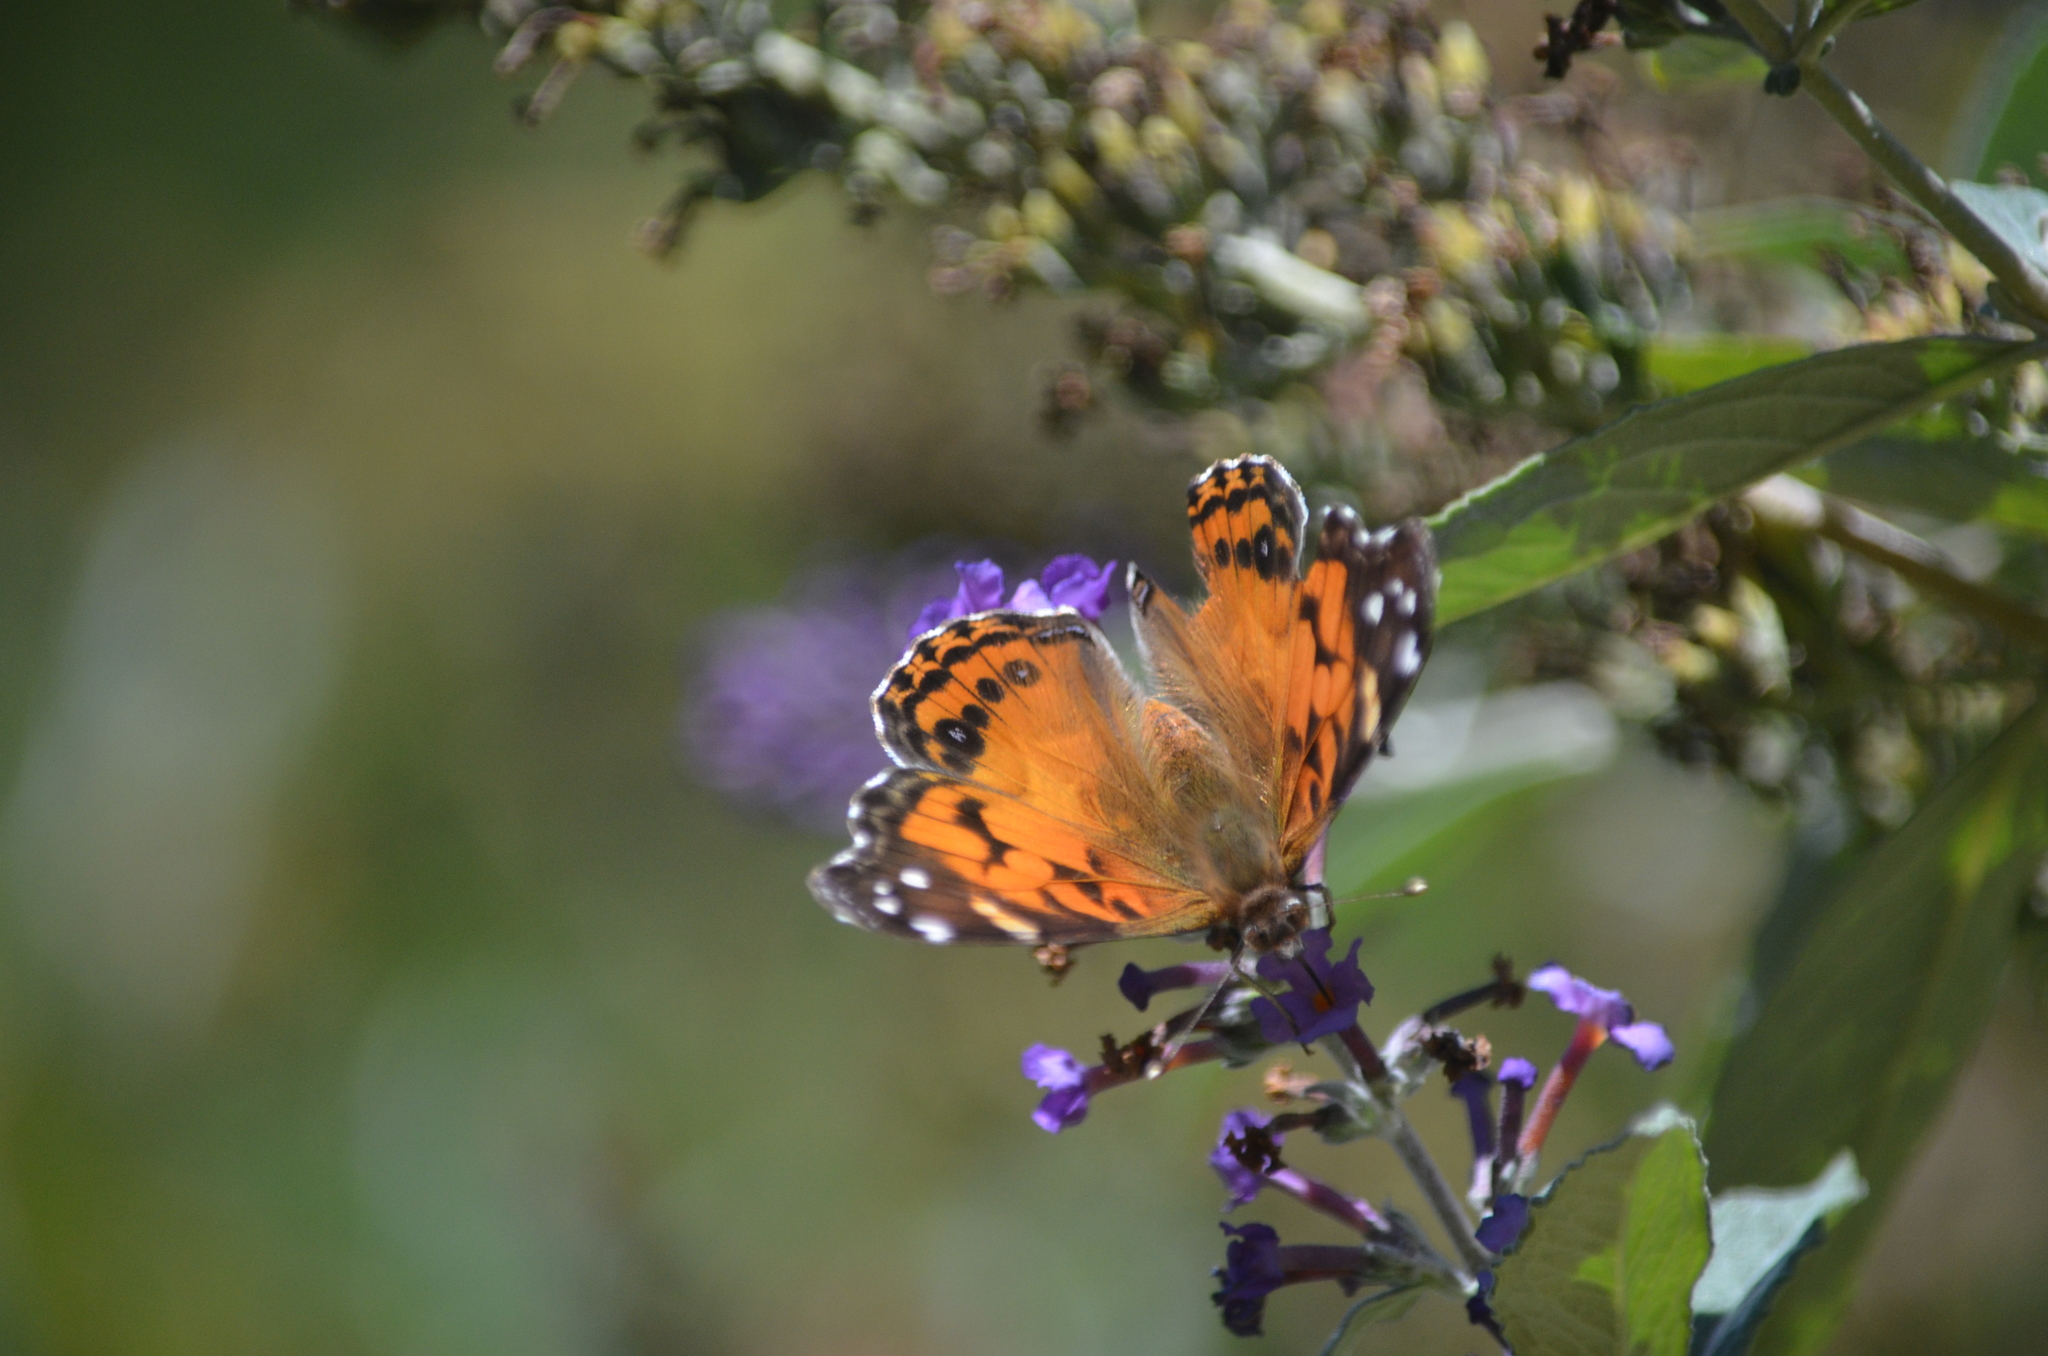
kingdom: Animalia
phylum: Arthropoda
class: Insecta
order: Lepidoptera
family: Nymphalidae
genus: Vanessa
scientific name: Vanessa virginiensis
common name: American lady
